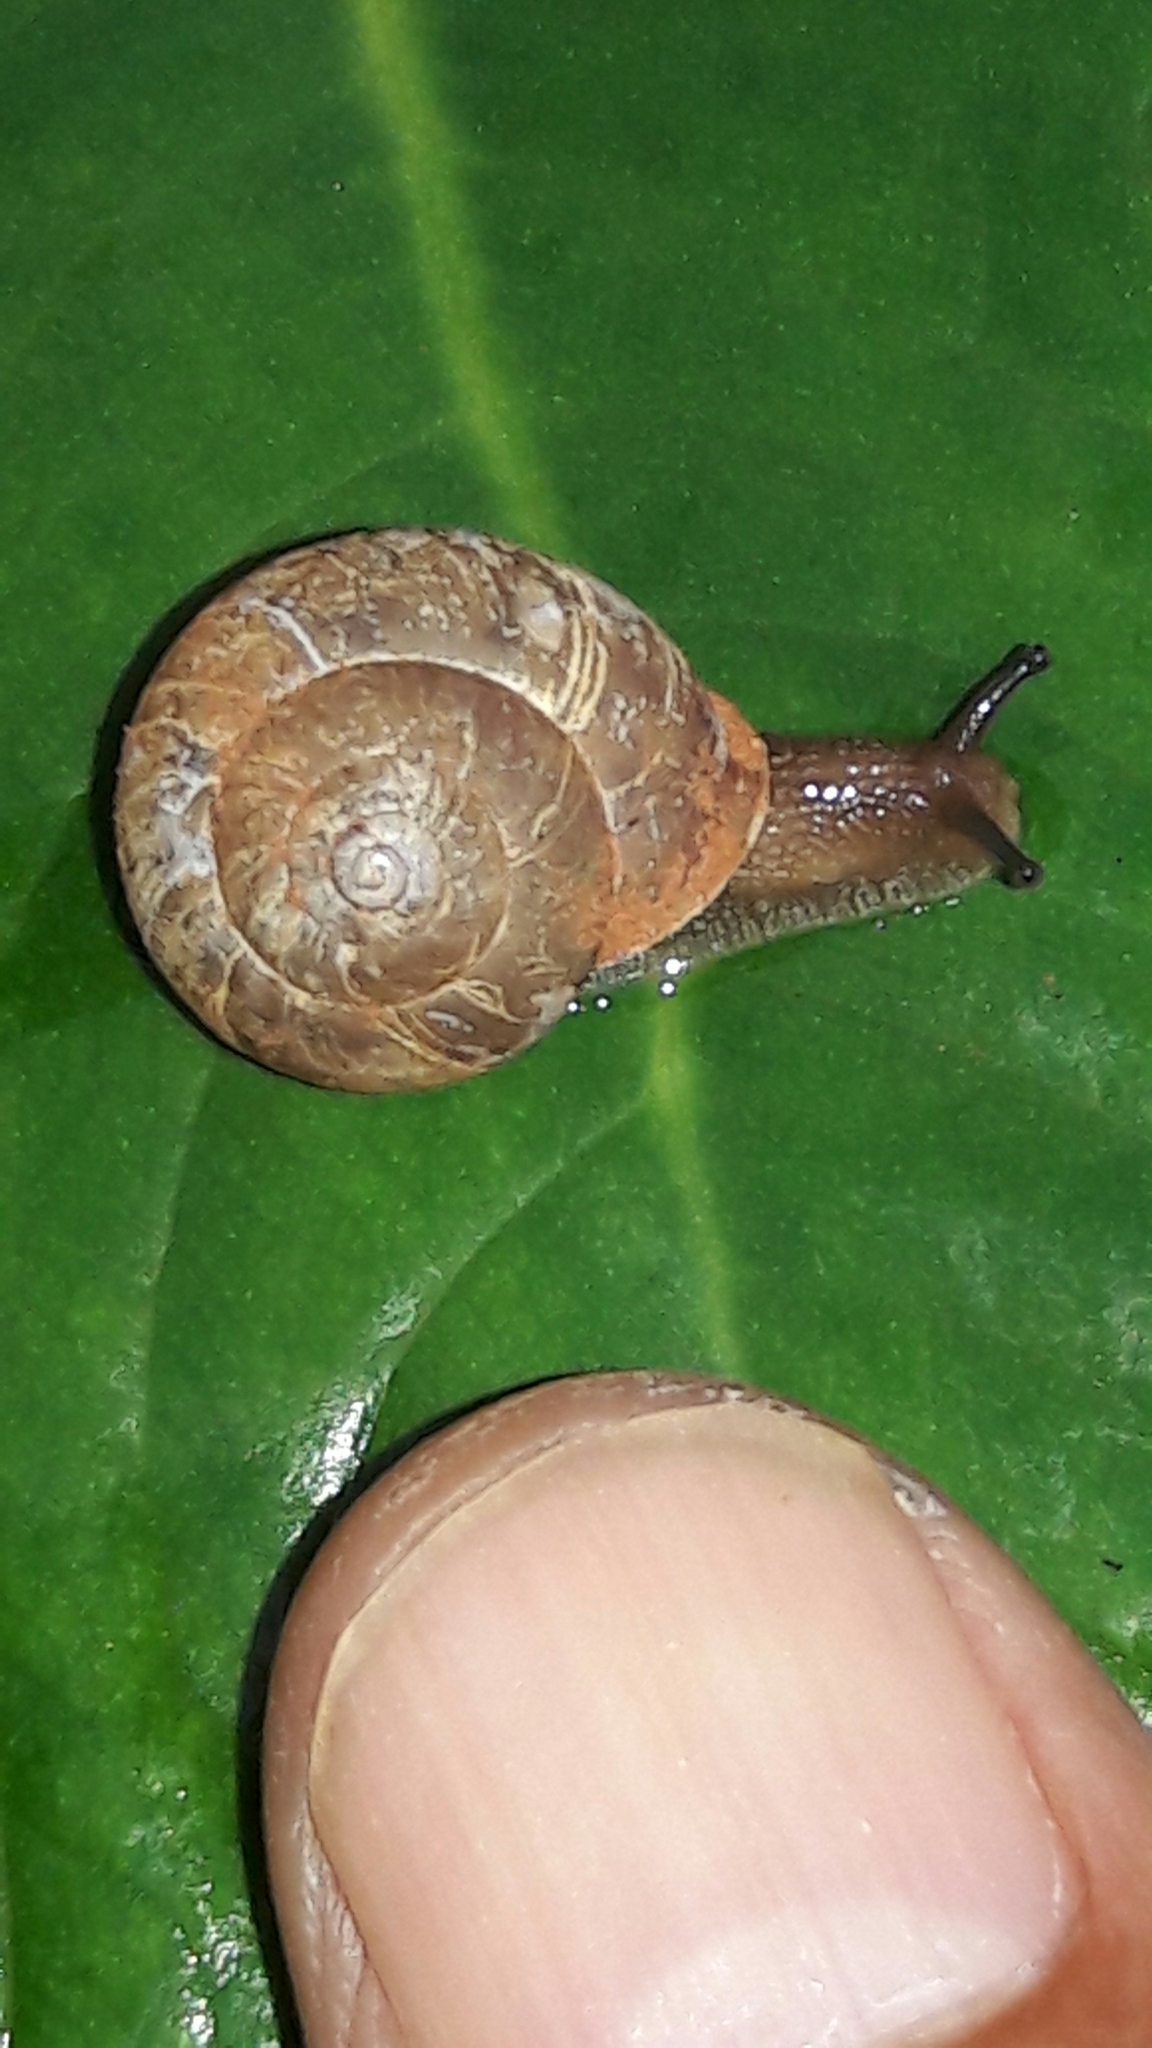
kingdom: Animalia
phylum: Mollusca
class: Gastropoda
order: Stylommatophora
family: Camaenidae
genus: Bradybaena
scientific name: Bradybaena similaris
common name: Asian trampsnail
